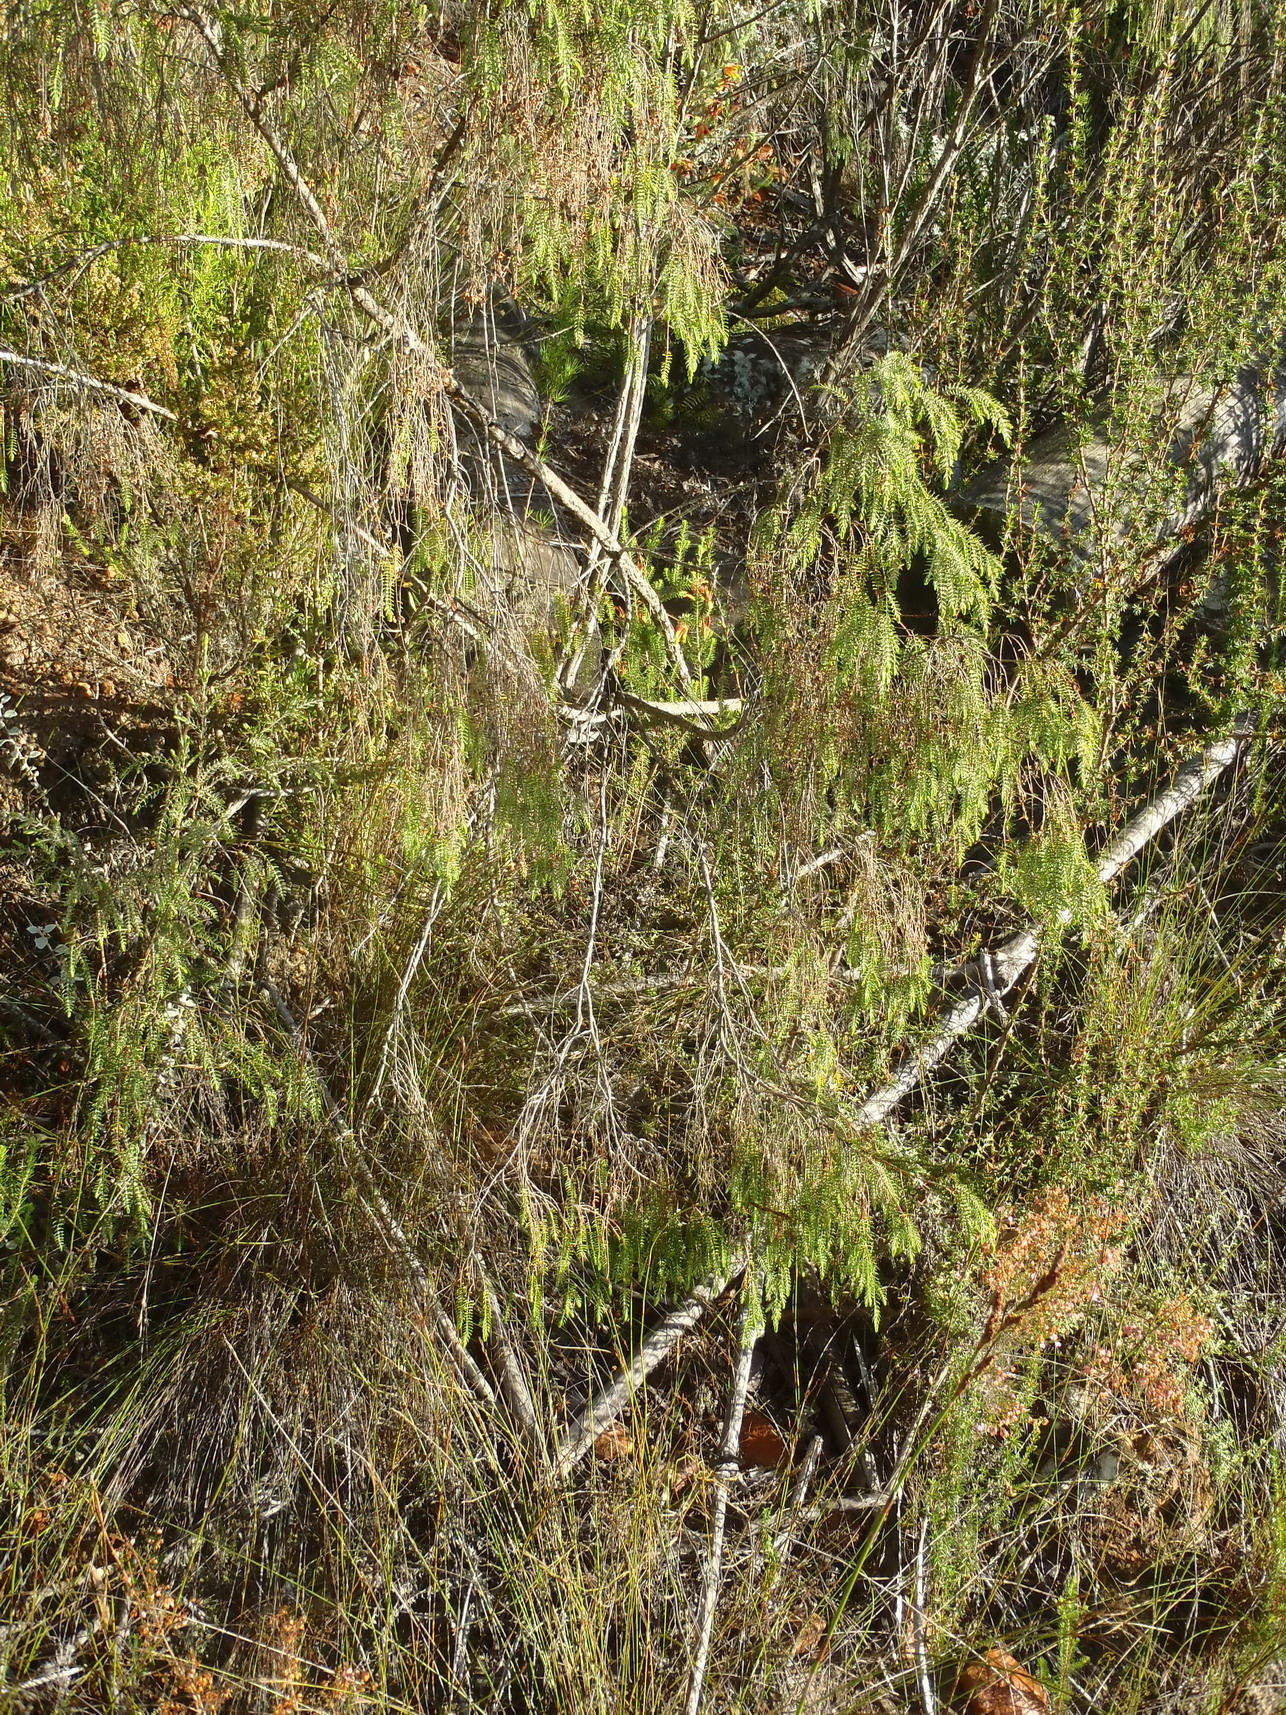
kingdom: Plantae
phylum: Tracheophyta
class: Magnoliopsida
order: Malvales
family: Thymelaeaceae
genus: Passerina
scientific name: Passerina falcifolia
